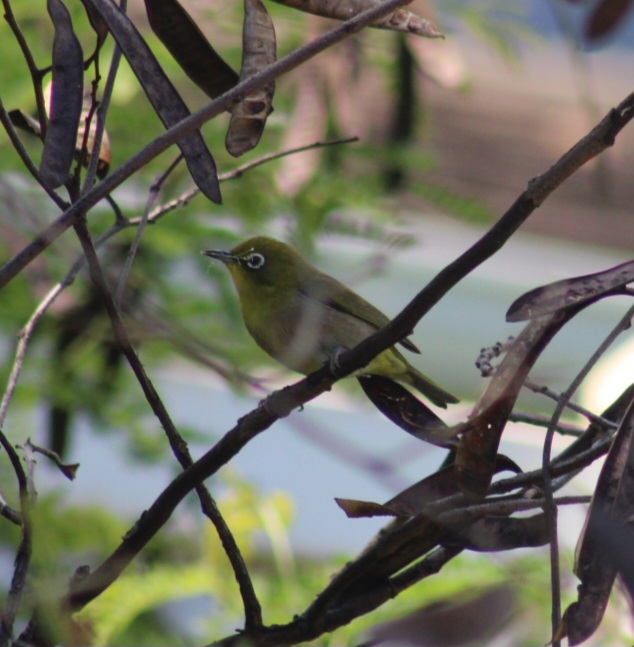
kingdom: Animalia
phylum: Chordata
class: Aves
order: Passeriformes
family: Zosteropidae
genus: Zosterops
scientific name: Zosterops japonicus
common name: Japanese white-eye
